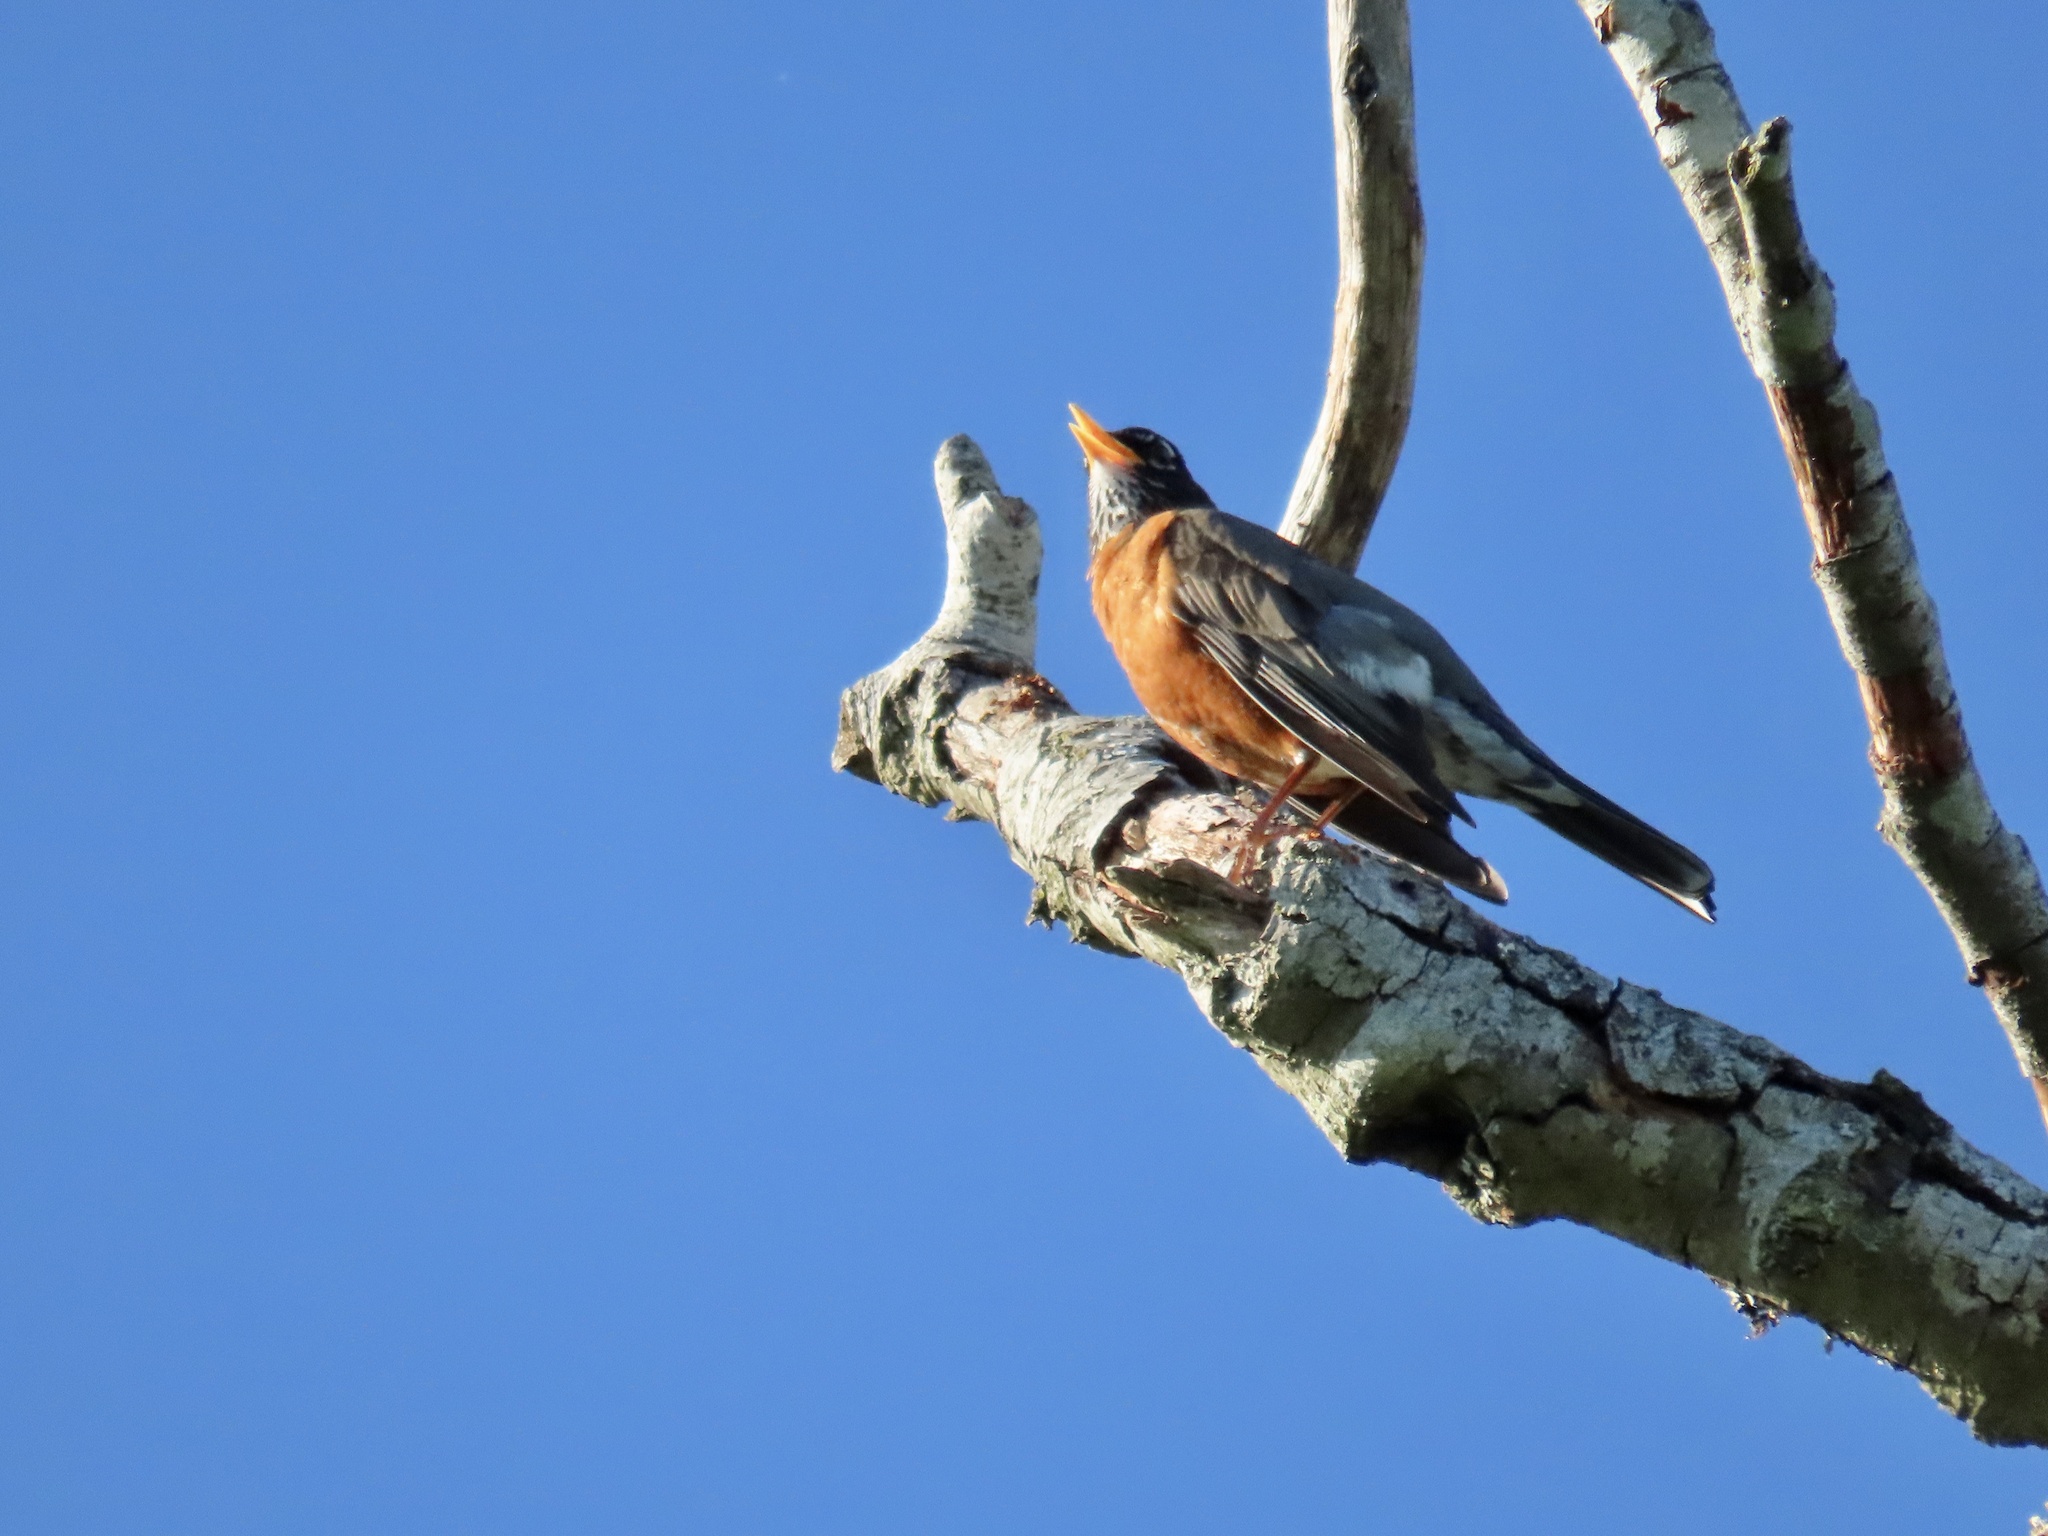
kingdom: Animalia
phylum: Chordata
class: Aves
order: Passeriformes
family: Turdidae
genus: Turdus
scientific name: Turdus migratorius
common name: American robin
